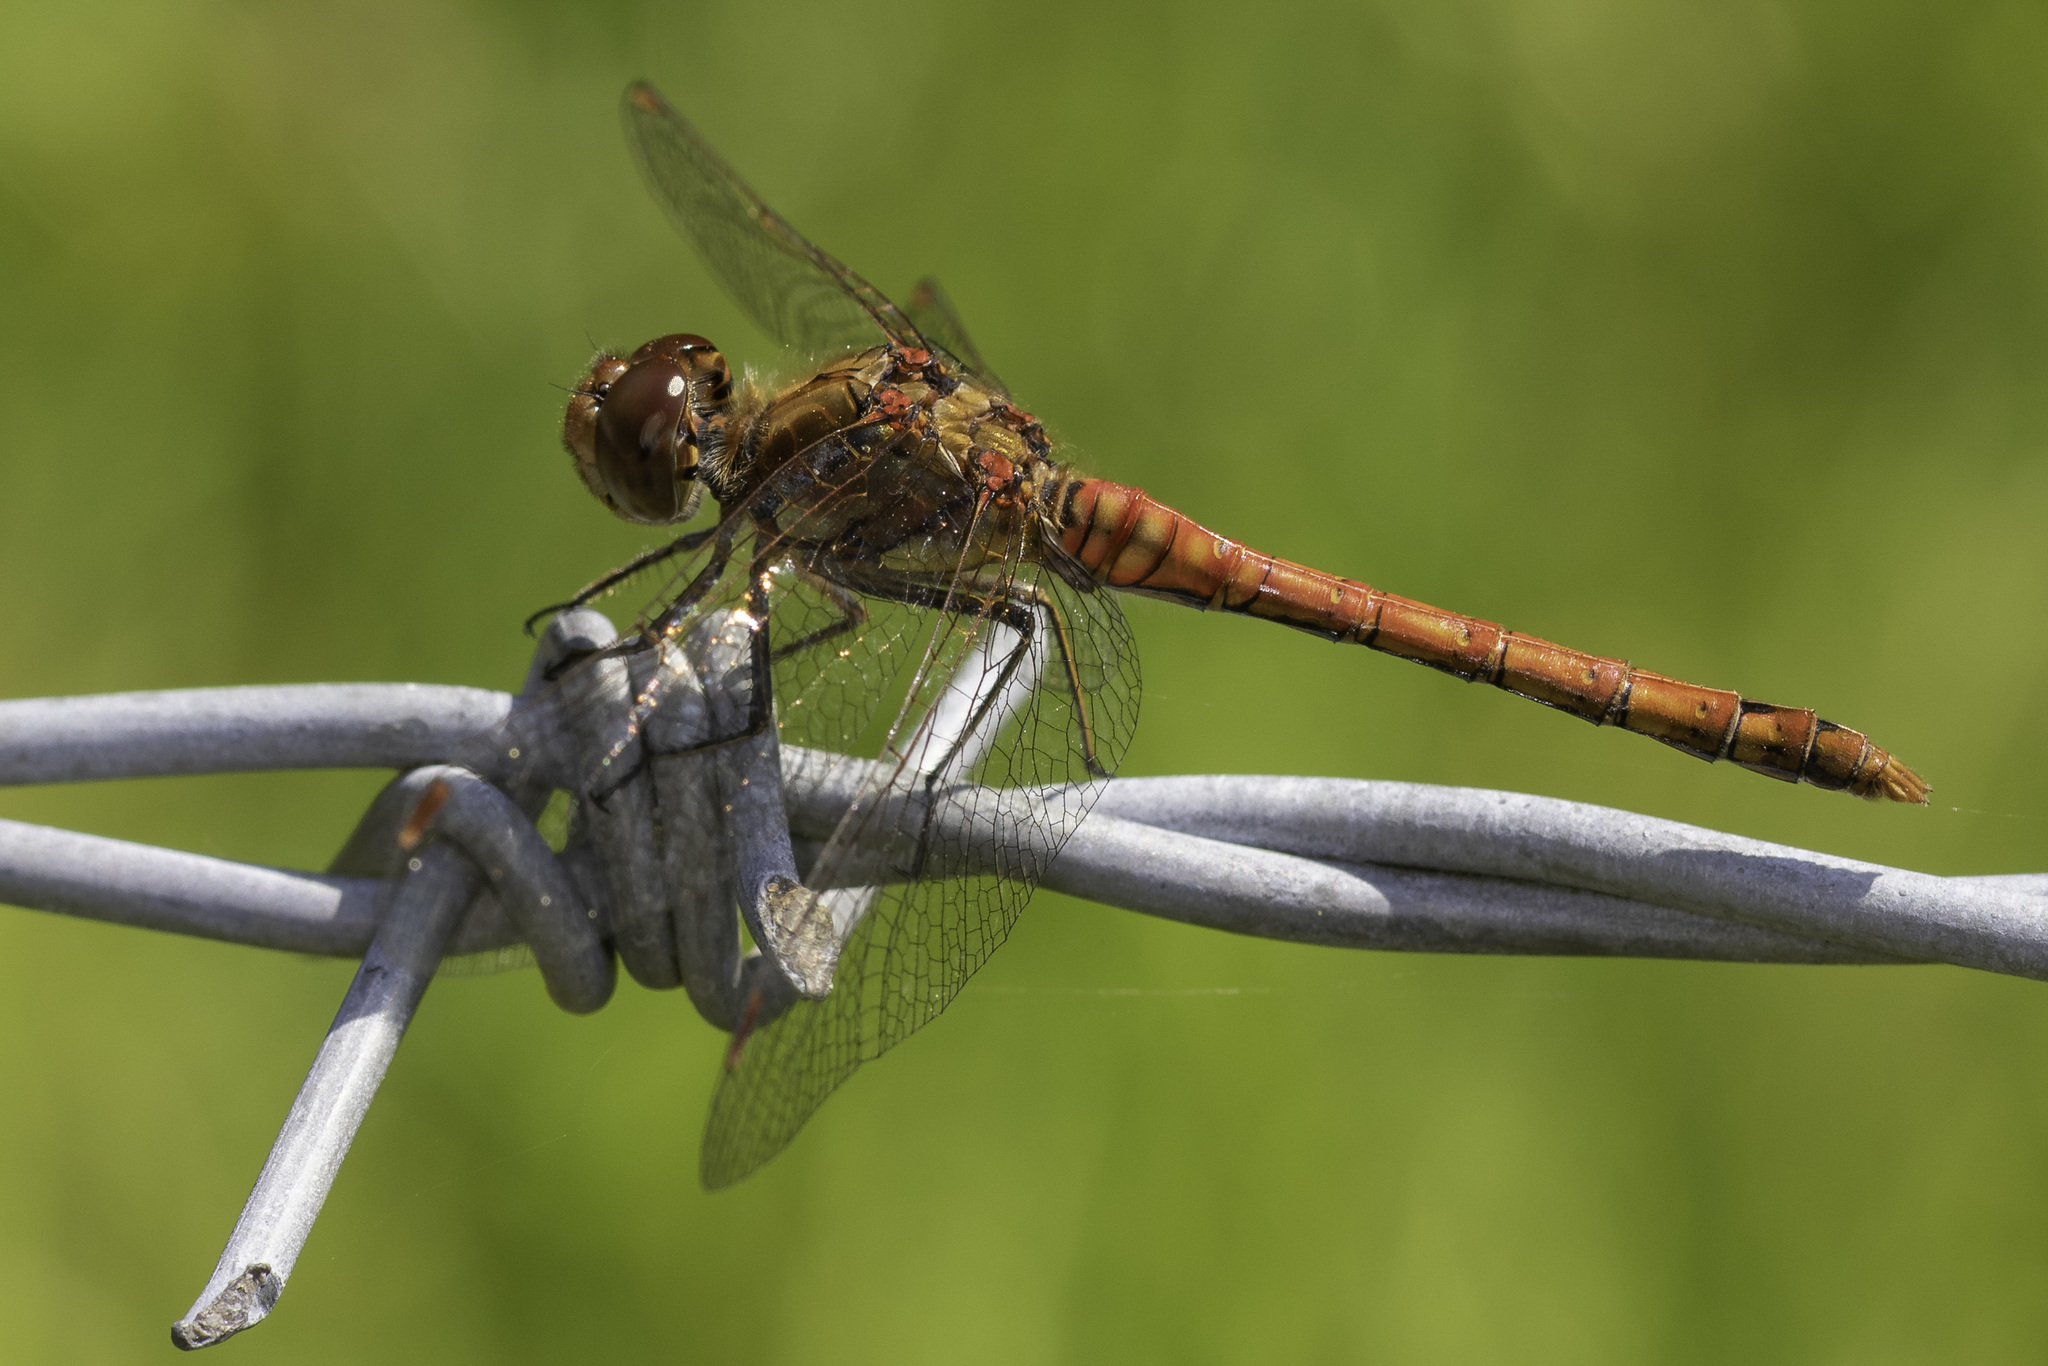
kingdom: Animalia
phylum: Arthropoda
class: Insecta
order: Odonata
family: Libellulidae
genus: Sympetrum
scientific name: Sympetrum striolatum
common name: Common darter
